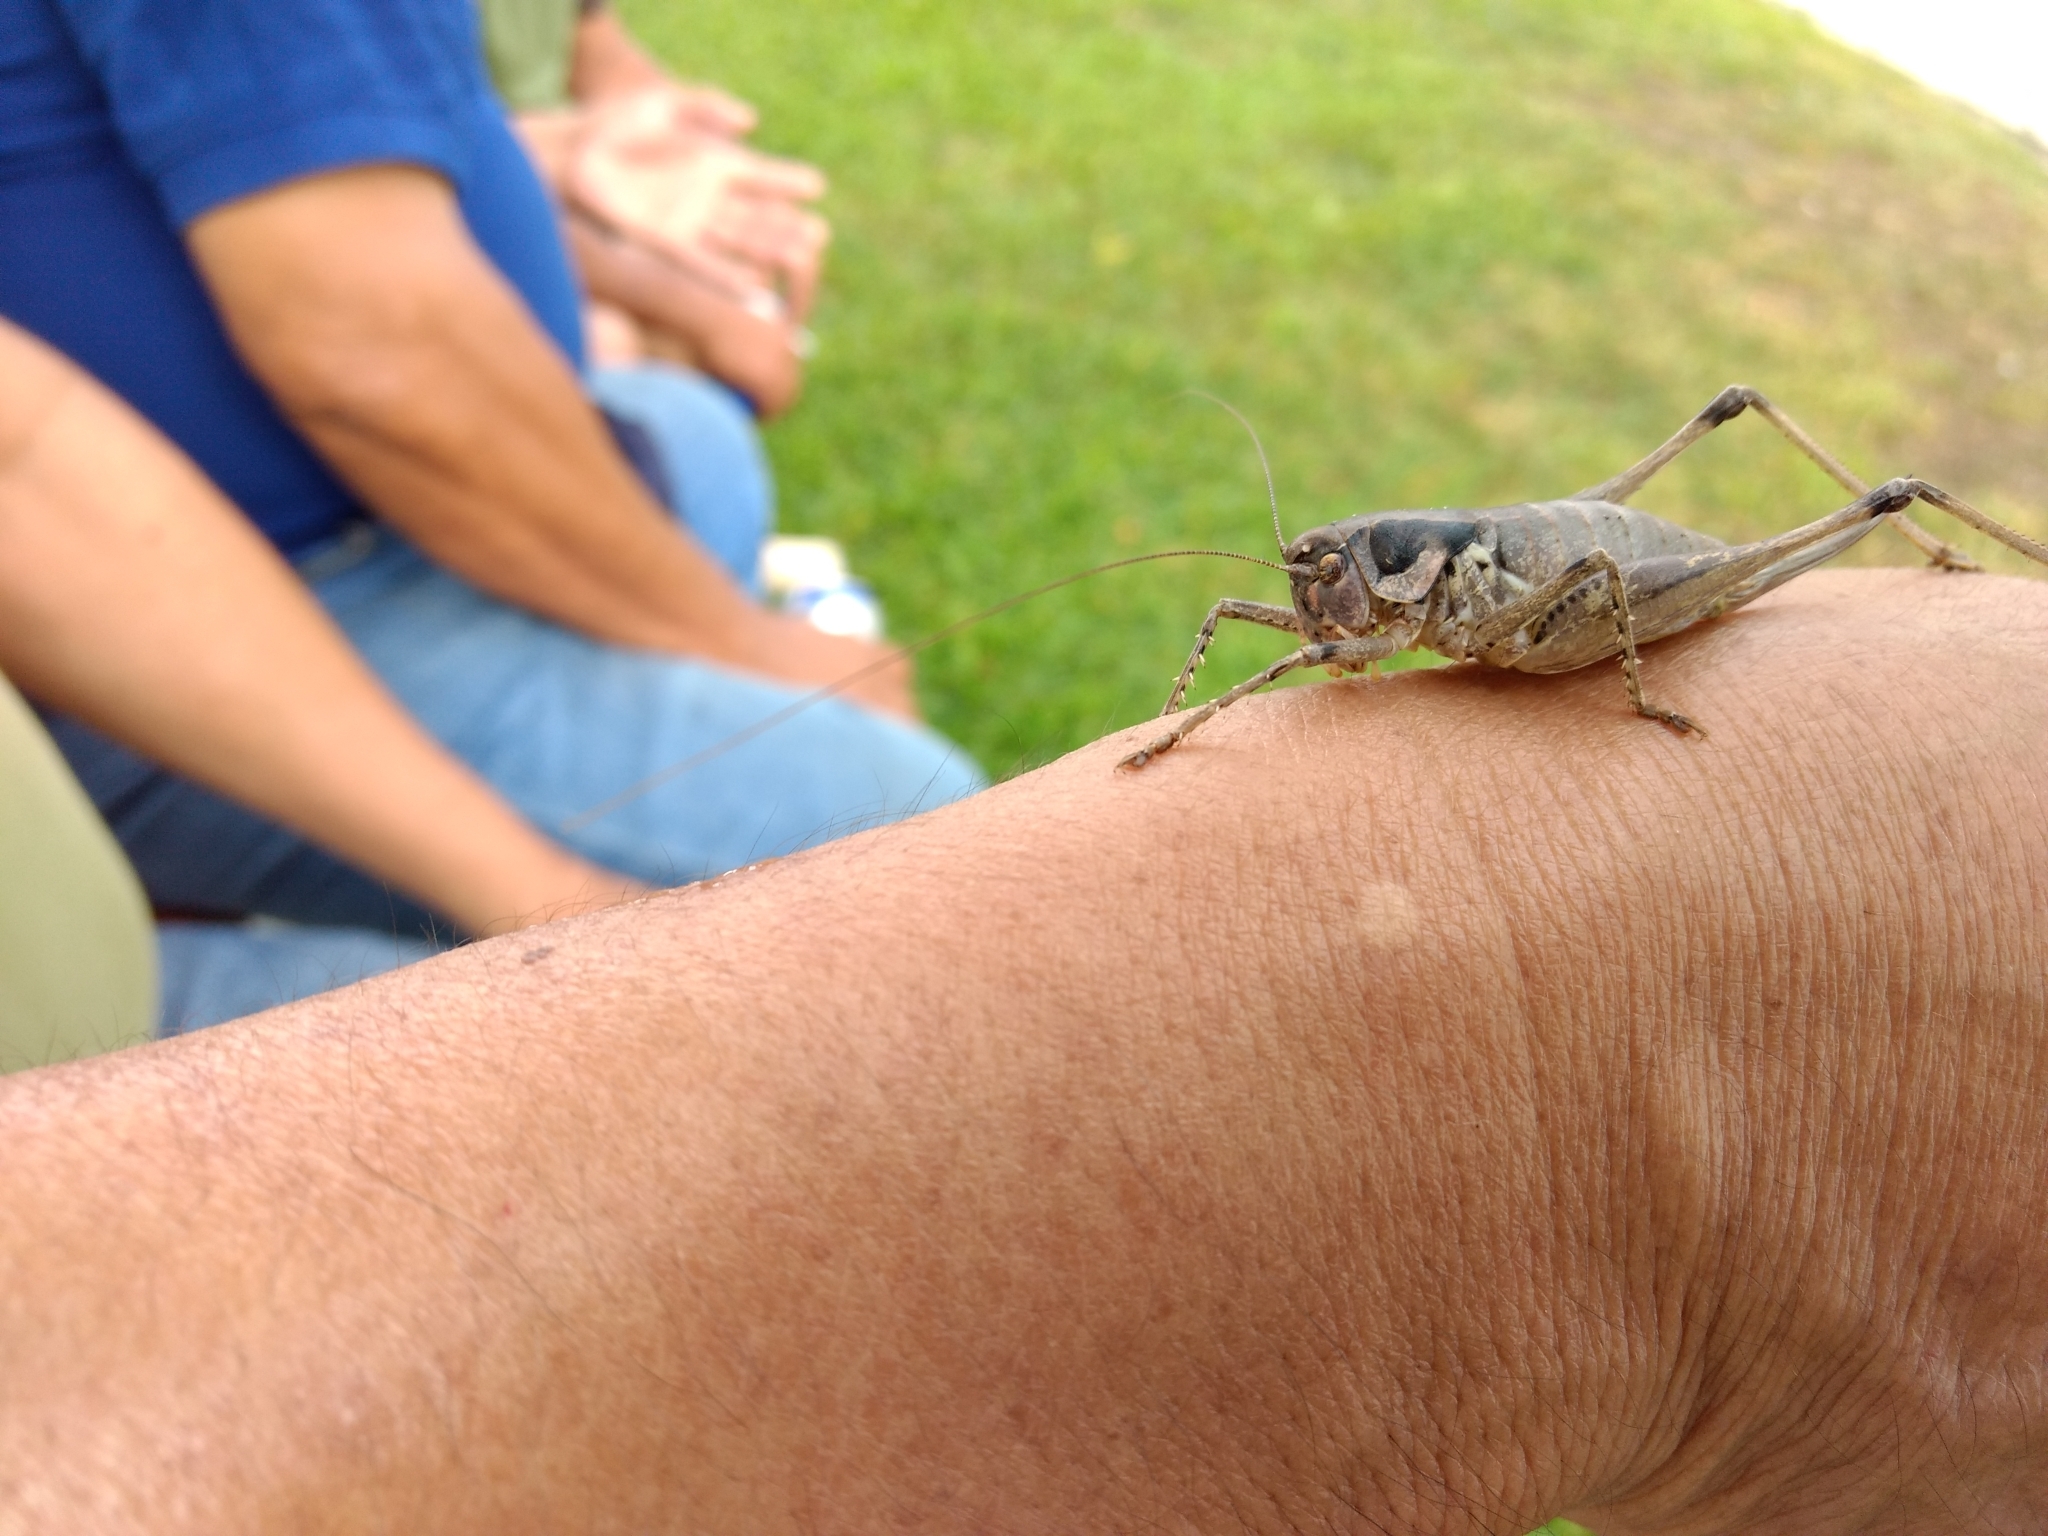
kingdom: Animalia
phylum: Arthropoda
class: Insecta
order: Orthoptera
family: Tettigoniidae
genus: Pediodectes
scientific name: Pediodectes grandis
